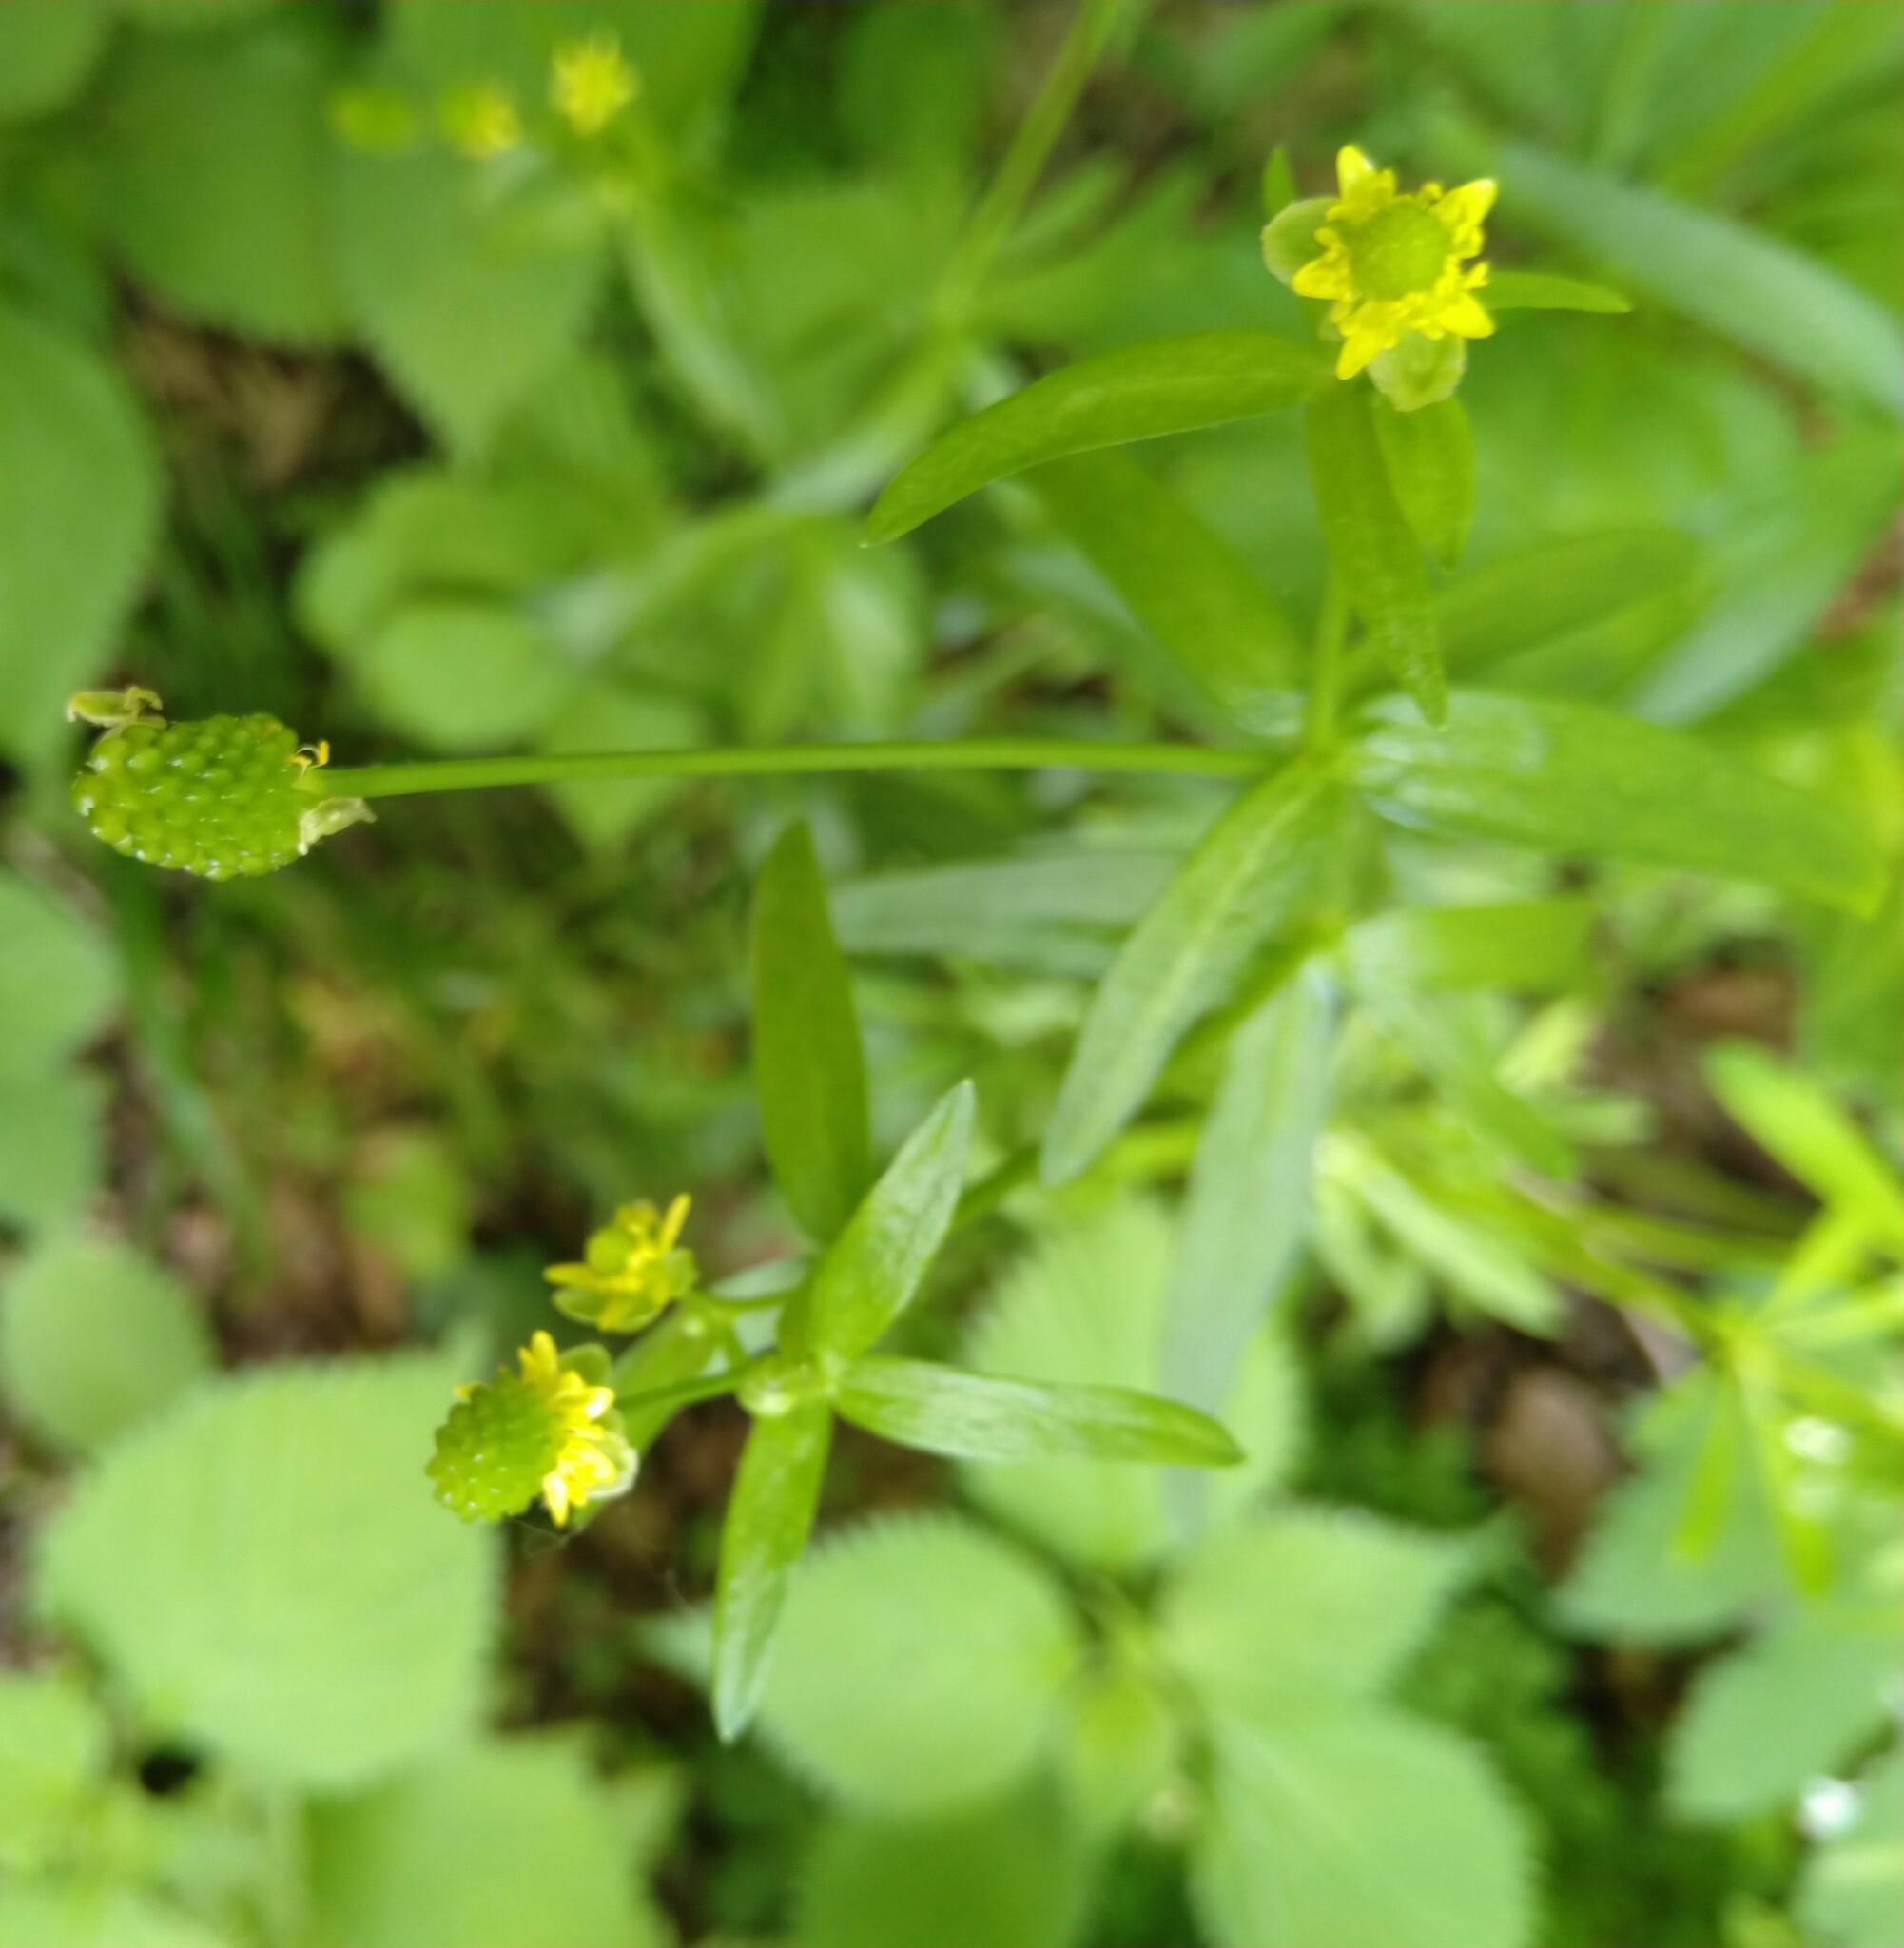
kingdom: Plantae
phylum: Tracheophyta
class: Magnoliopsida
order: Ranunculales
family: Ranunculaceae
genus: Ranunculus
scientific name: Ranunculus abortivus
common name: Early wood buttercup
